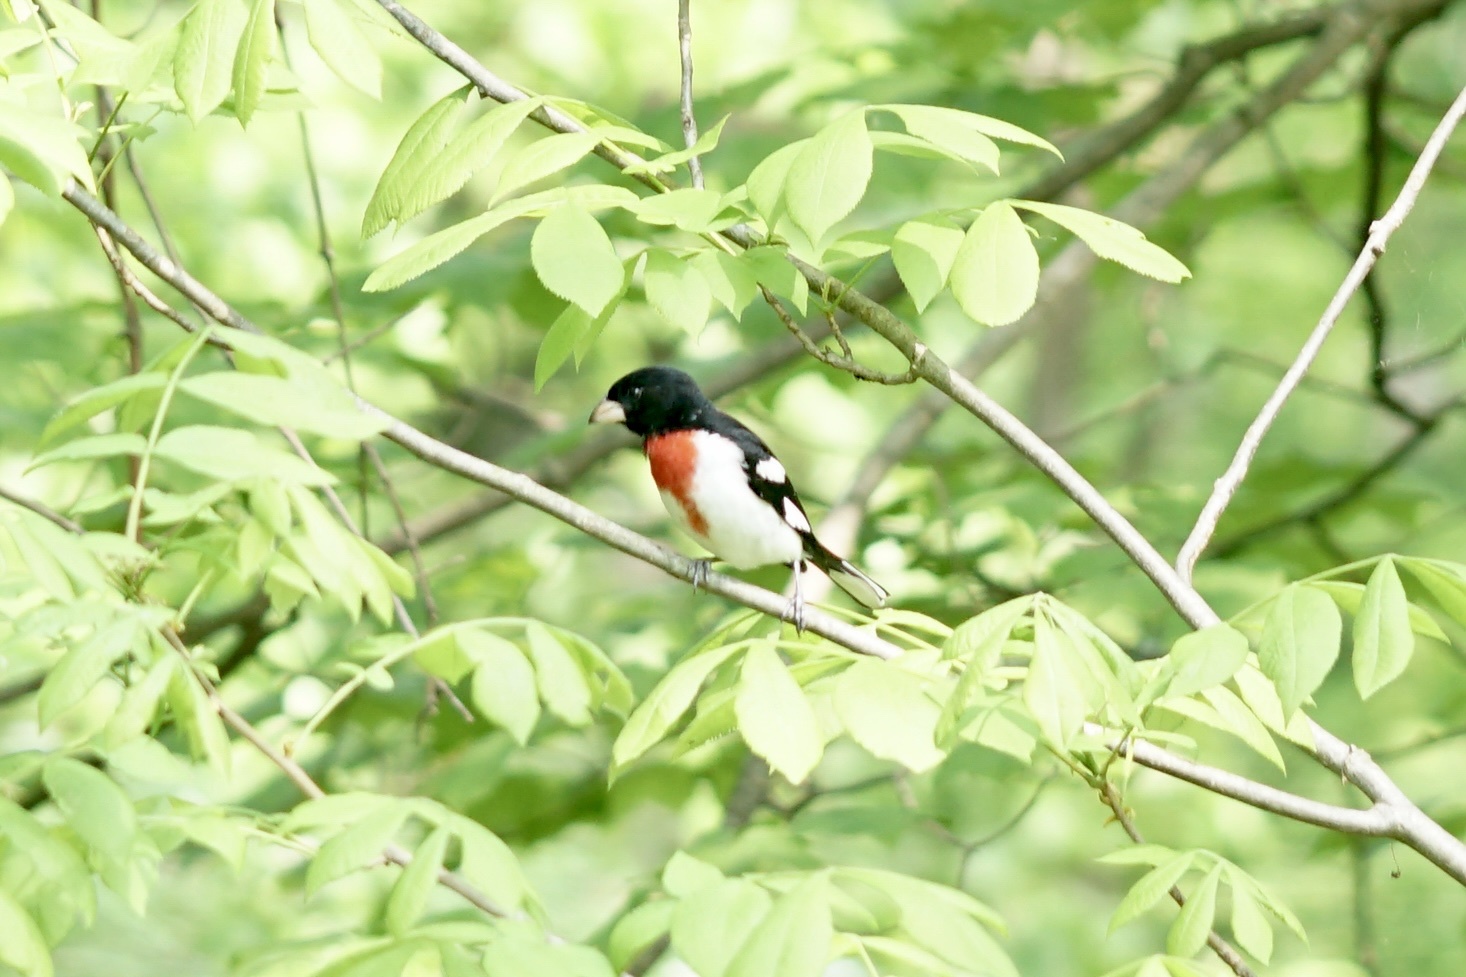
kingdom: Animalia
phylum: Chordata
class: Aves
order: Passeriformes
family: Cardinalidae
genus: Pheucticus
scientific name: Pheucticus ludovicianus
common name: Rose-breasted grosbeak
